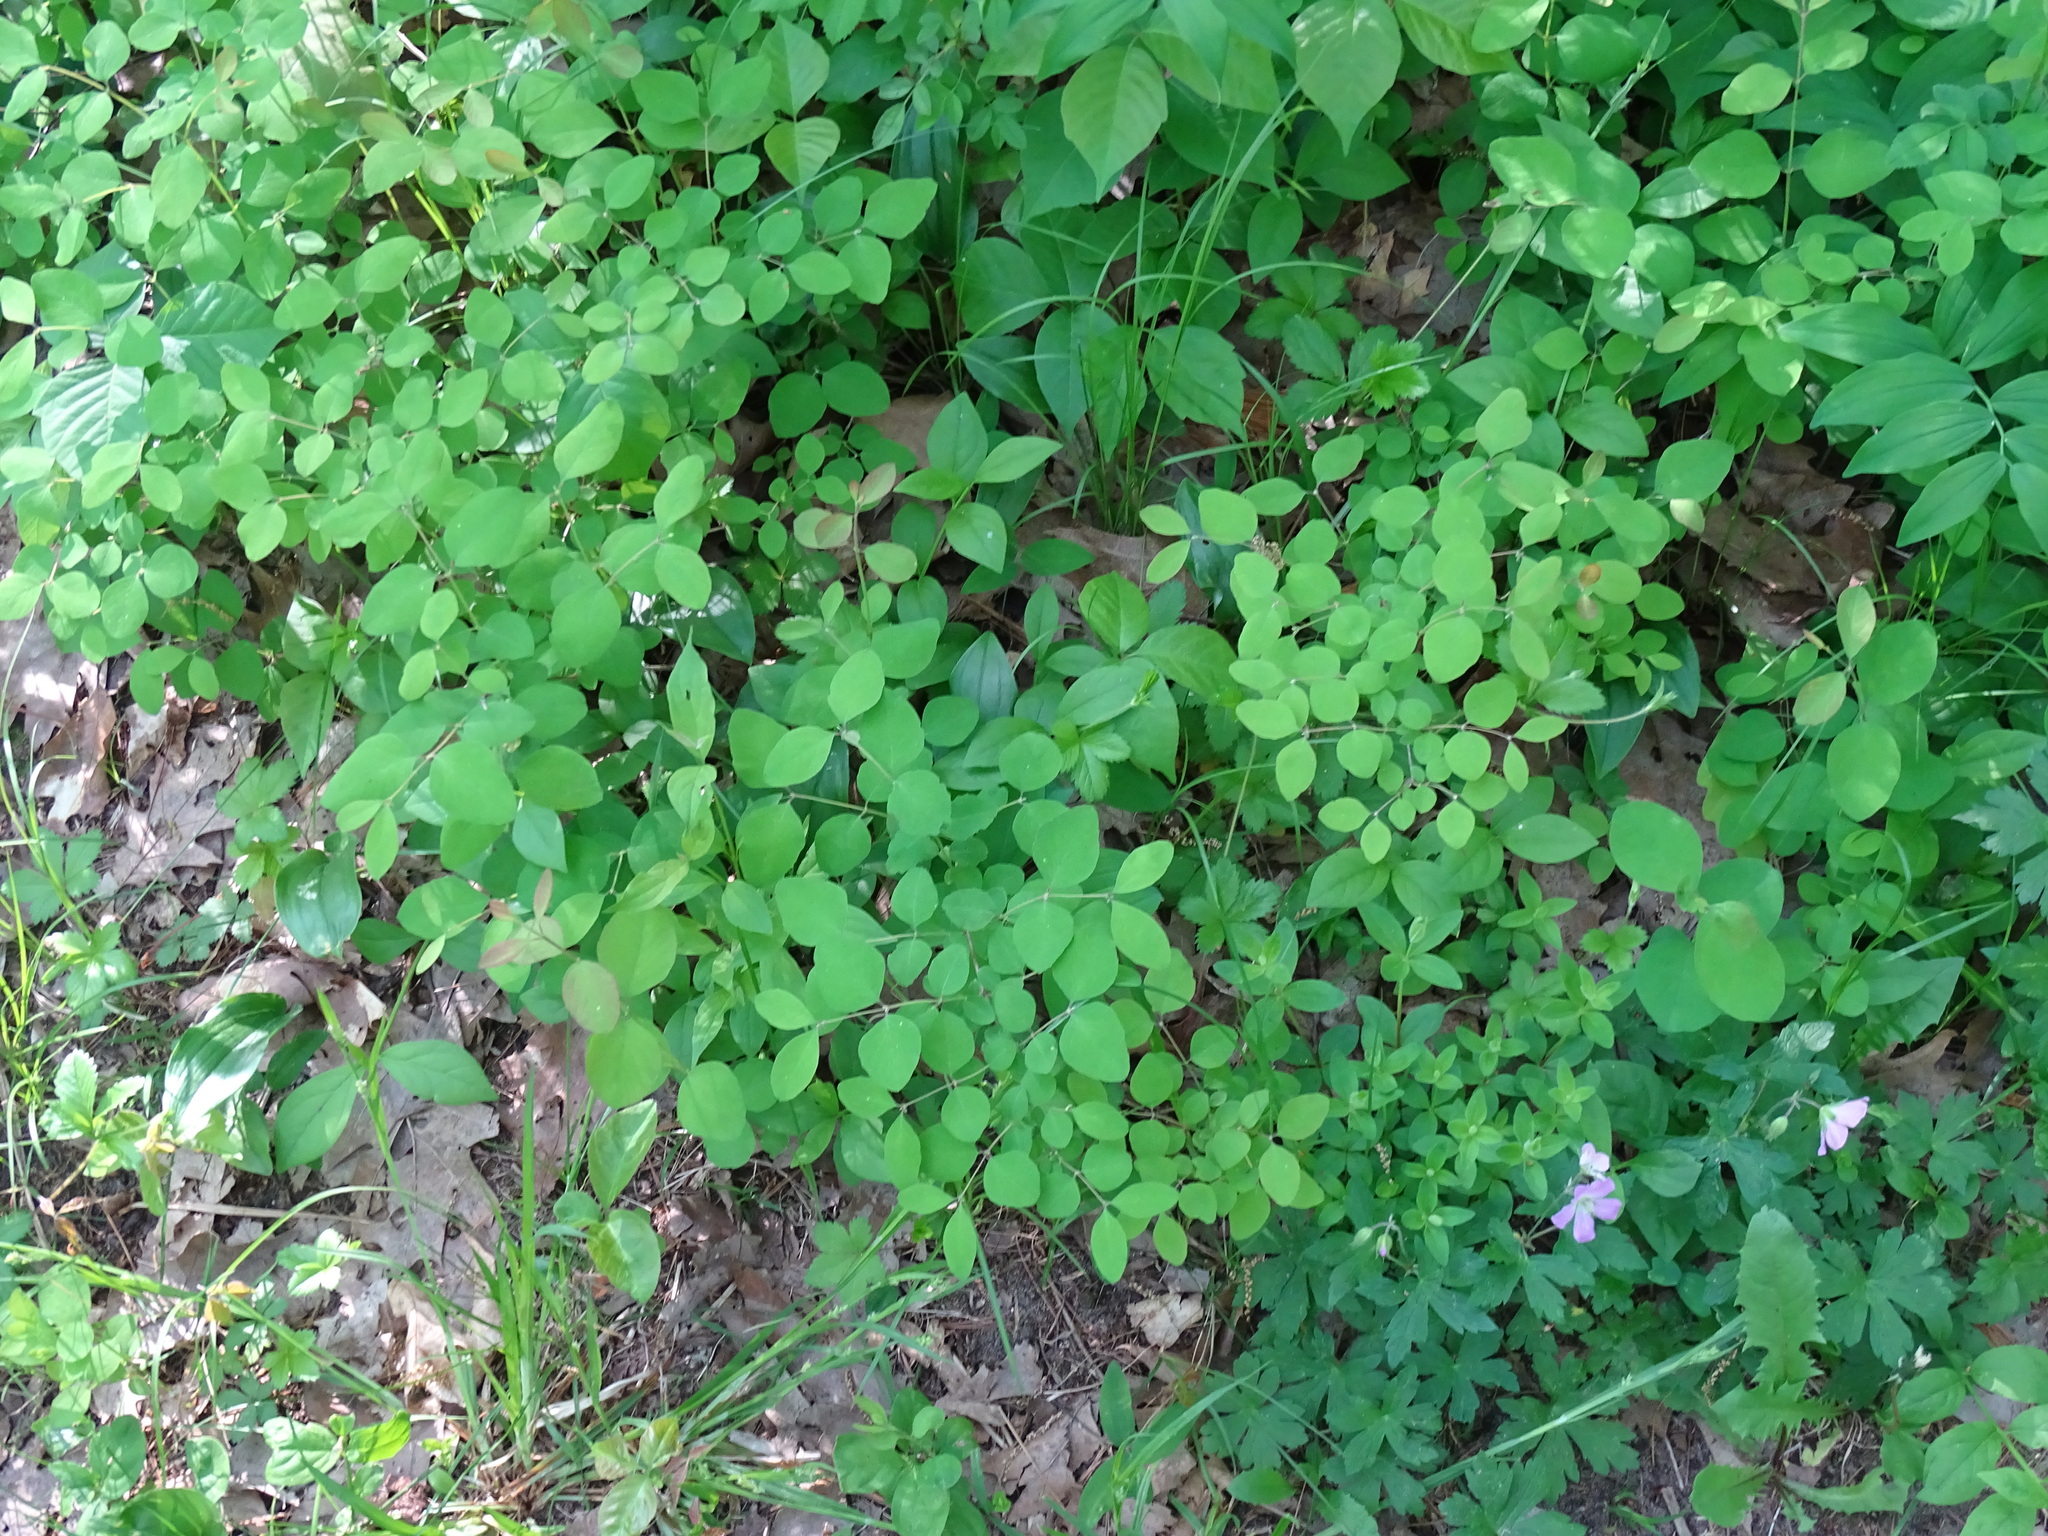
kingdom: Plantae
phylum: Tracheophyta
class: Magnoliopsida
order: Dipsacales
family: Caprifoliaceae
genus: Symphoricarpos
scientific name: Symphoricarpos albus
